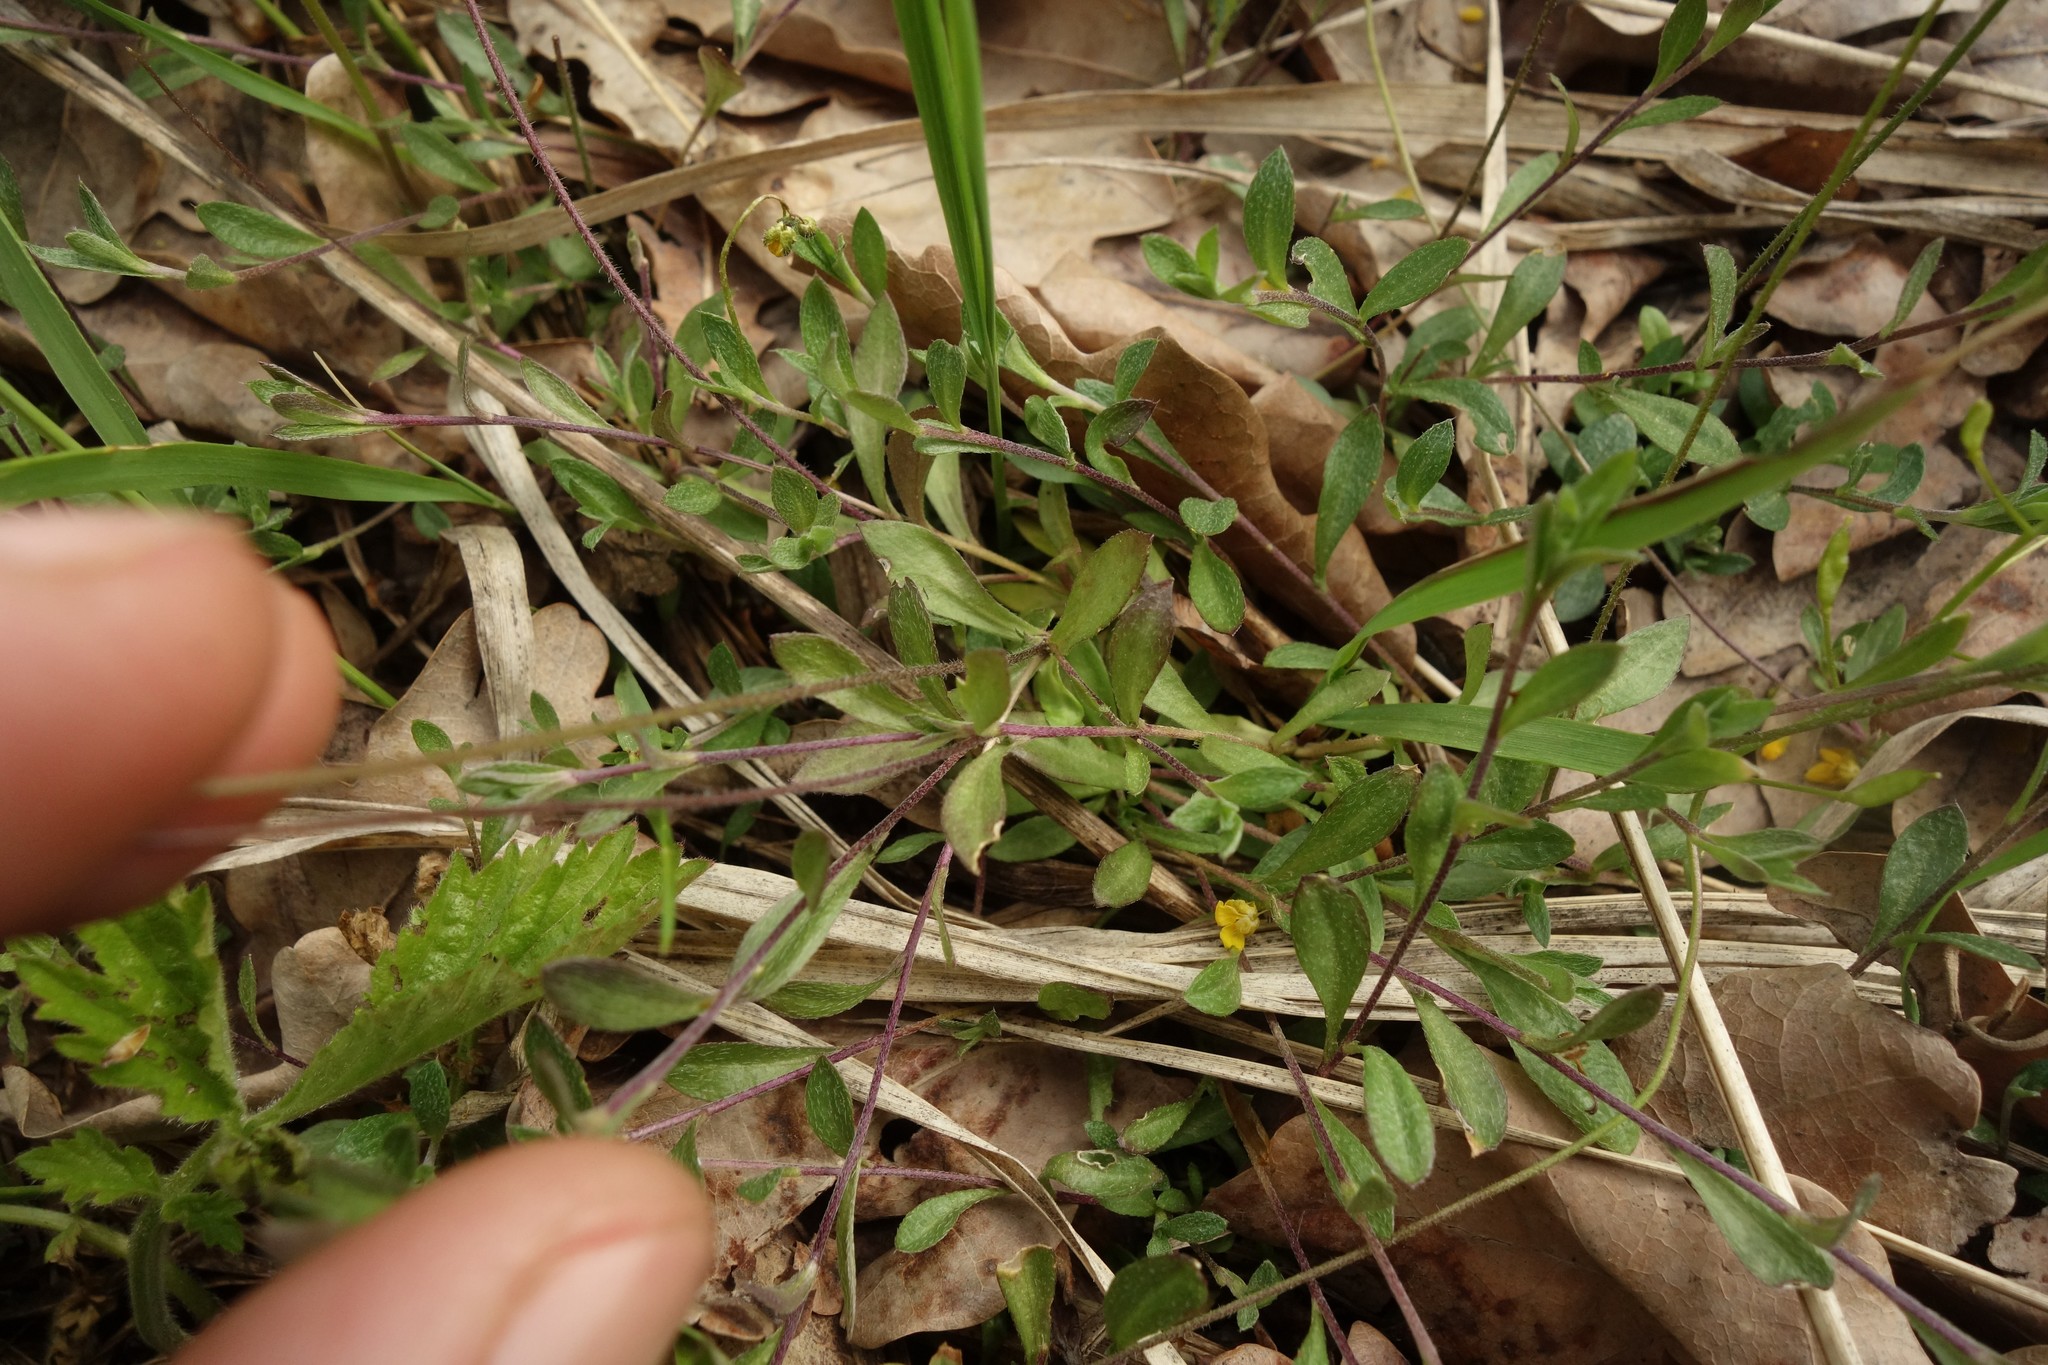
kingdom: Plantae
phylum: Tracheophyta
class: Magnoliopsida
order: Brassicales
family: Brassicaceae
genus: Draba
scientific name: Draba sibirica
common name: Siberian draba
